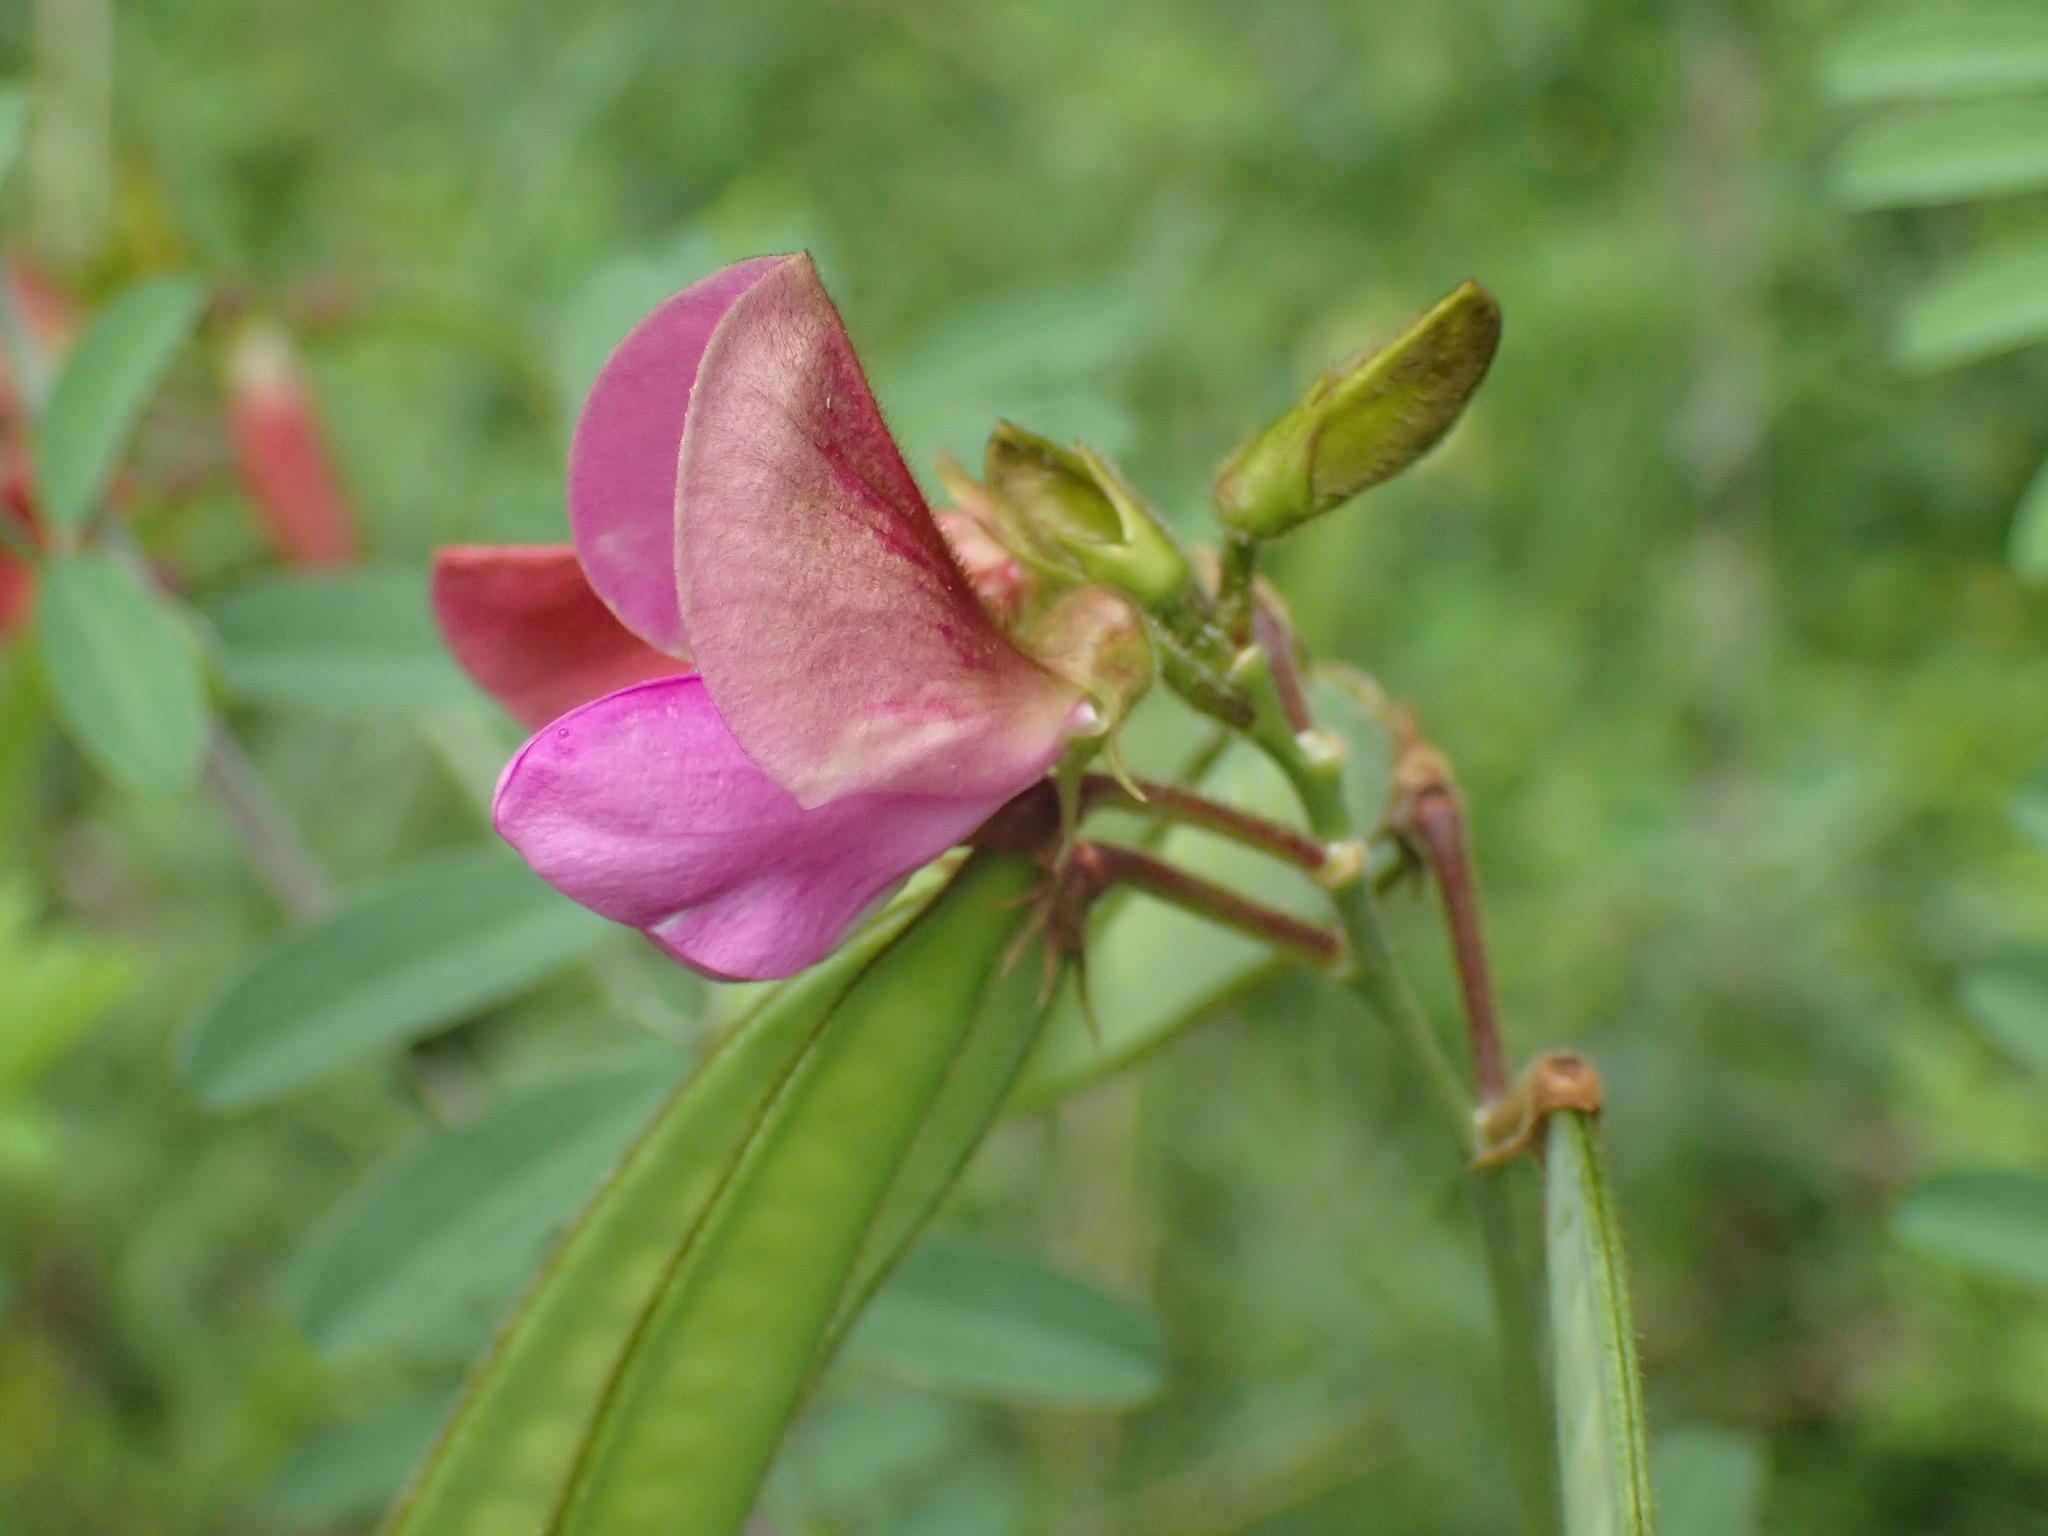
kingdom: Plantae
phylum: Tracheophyta
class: Magnoliopsida
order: Fabales
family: Fabaceae
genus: Tephrosia
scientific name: Tephrosia shiluwanensis
